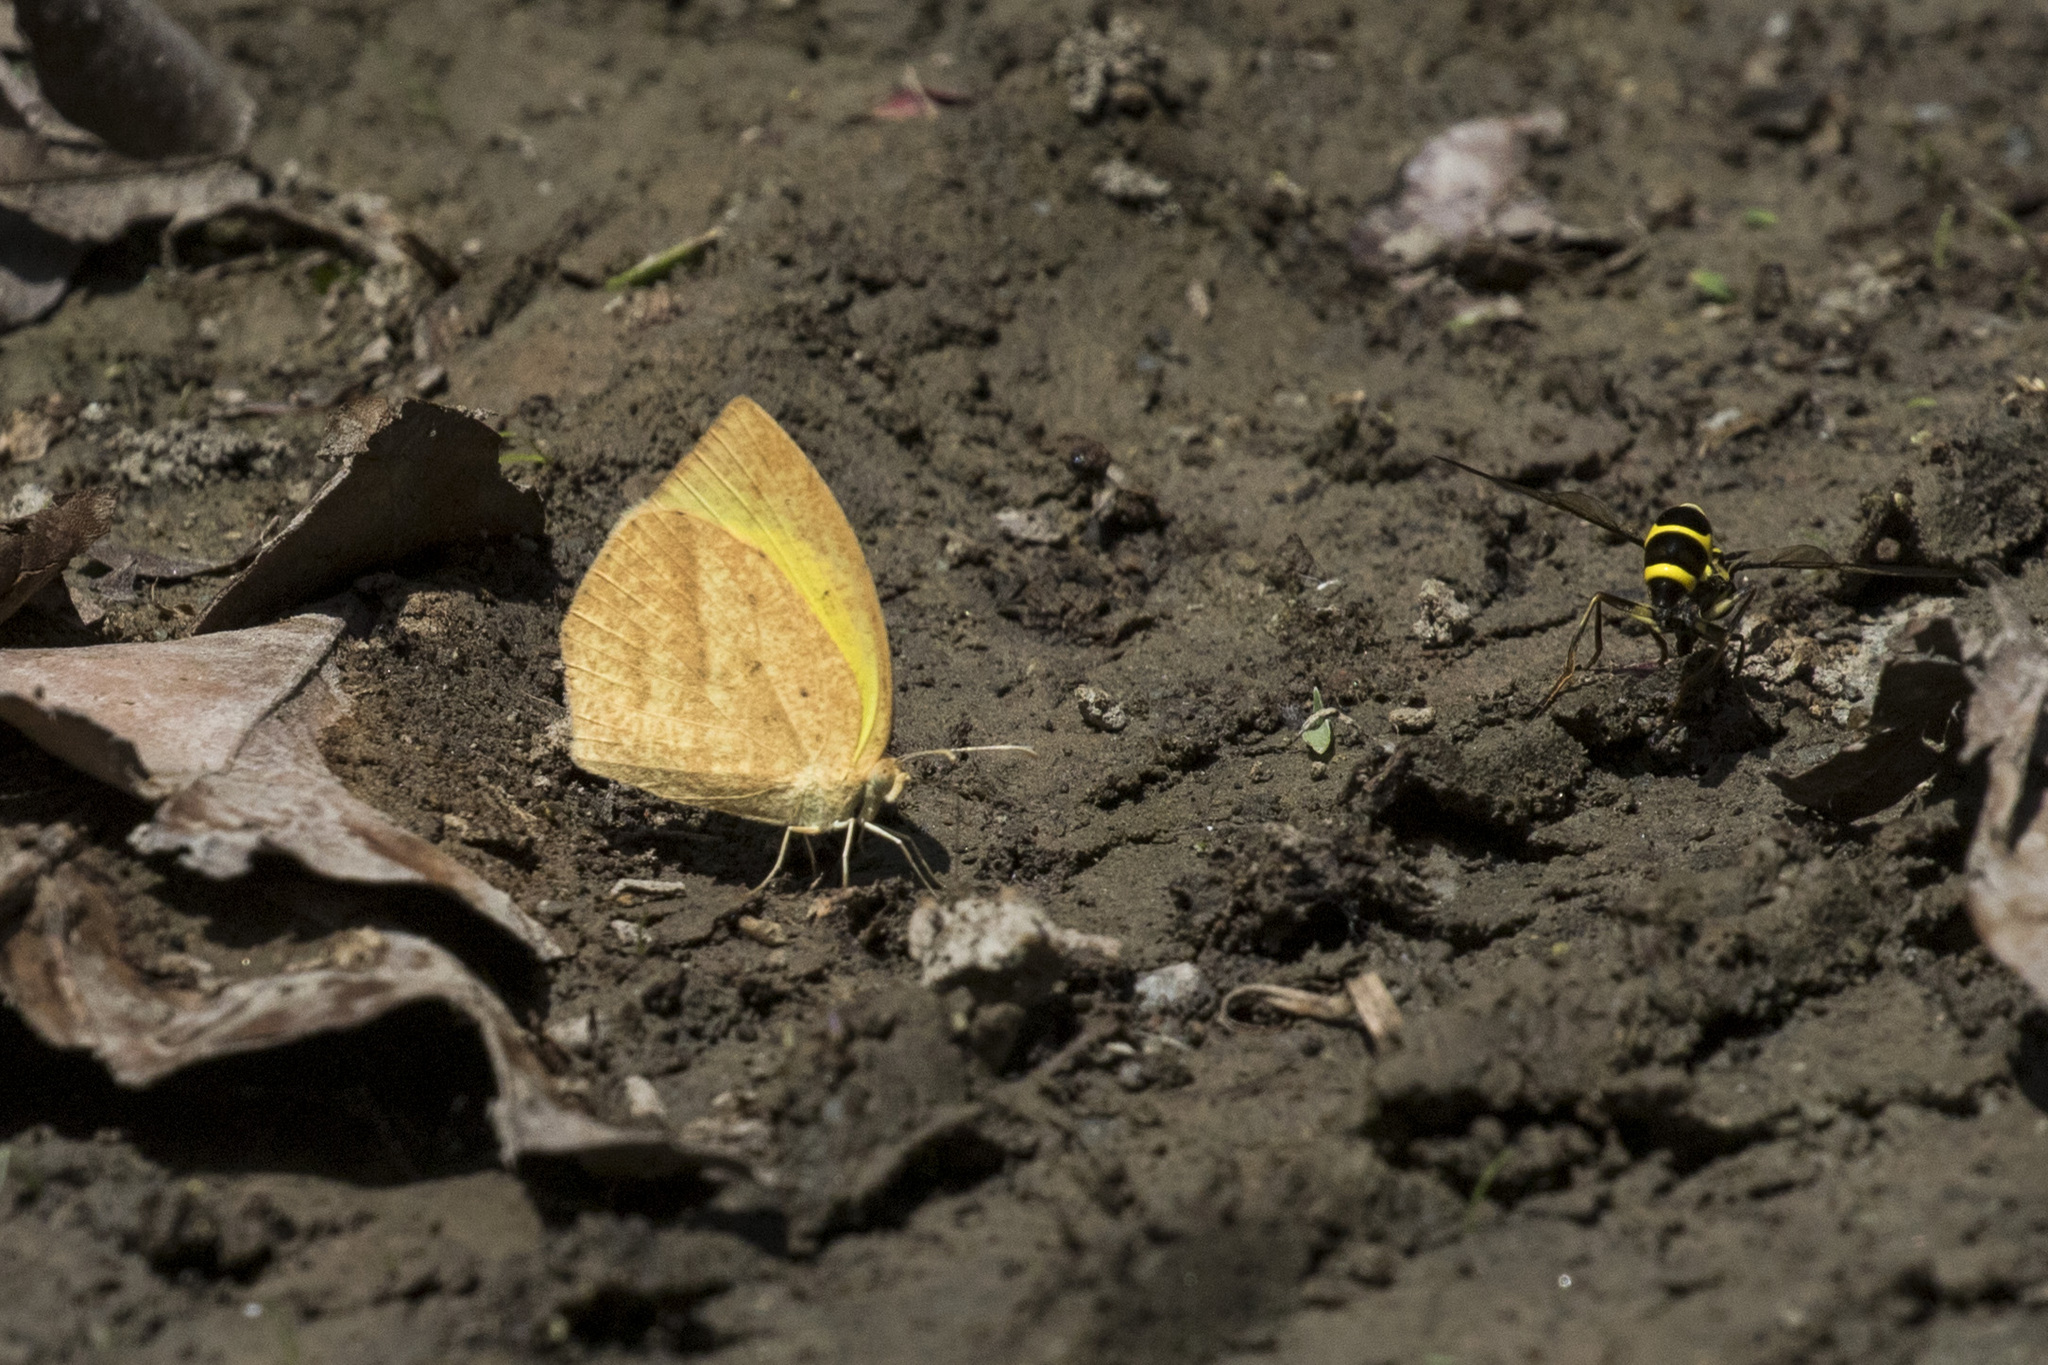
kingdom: Animalia
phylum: Arthropoda
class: Insecta
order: Lepidoptera
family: Pieridae
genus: Eurema
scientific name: Eurema laeta
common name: Spotless grass yellow
